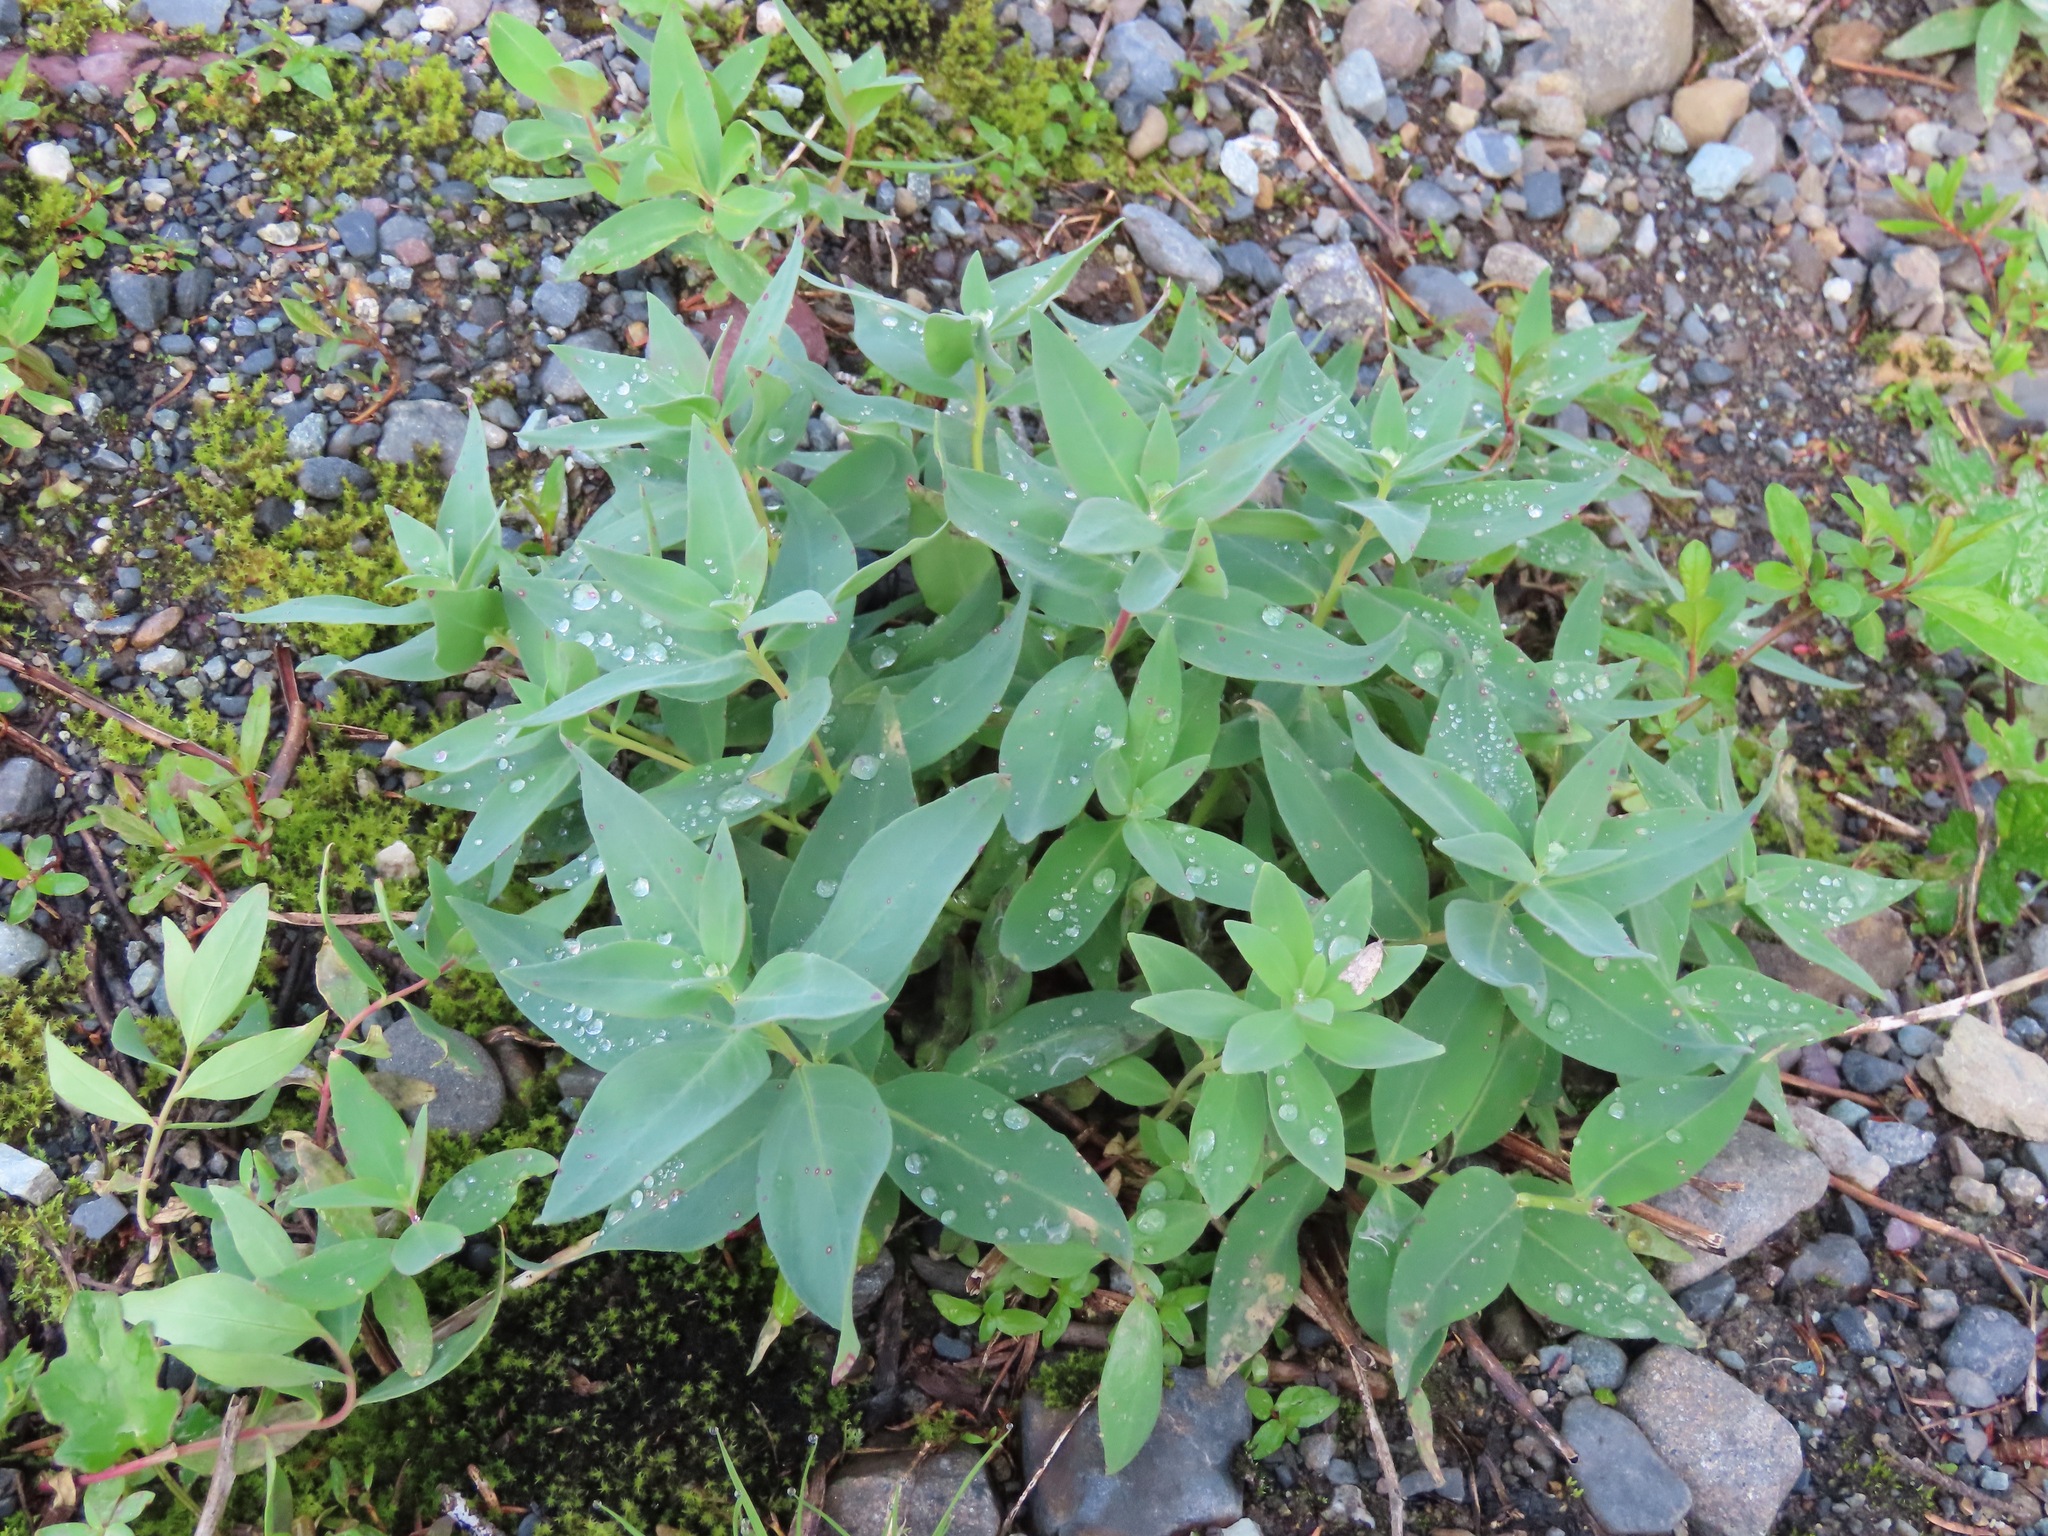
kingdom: Plantae
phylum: Tracheophyta
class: Magnoliopsida
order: Myrtales
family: Onagraceae
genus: Chamaenerion
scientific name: Chamaenerion latifolium
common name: Dwarf fireweed
